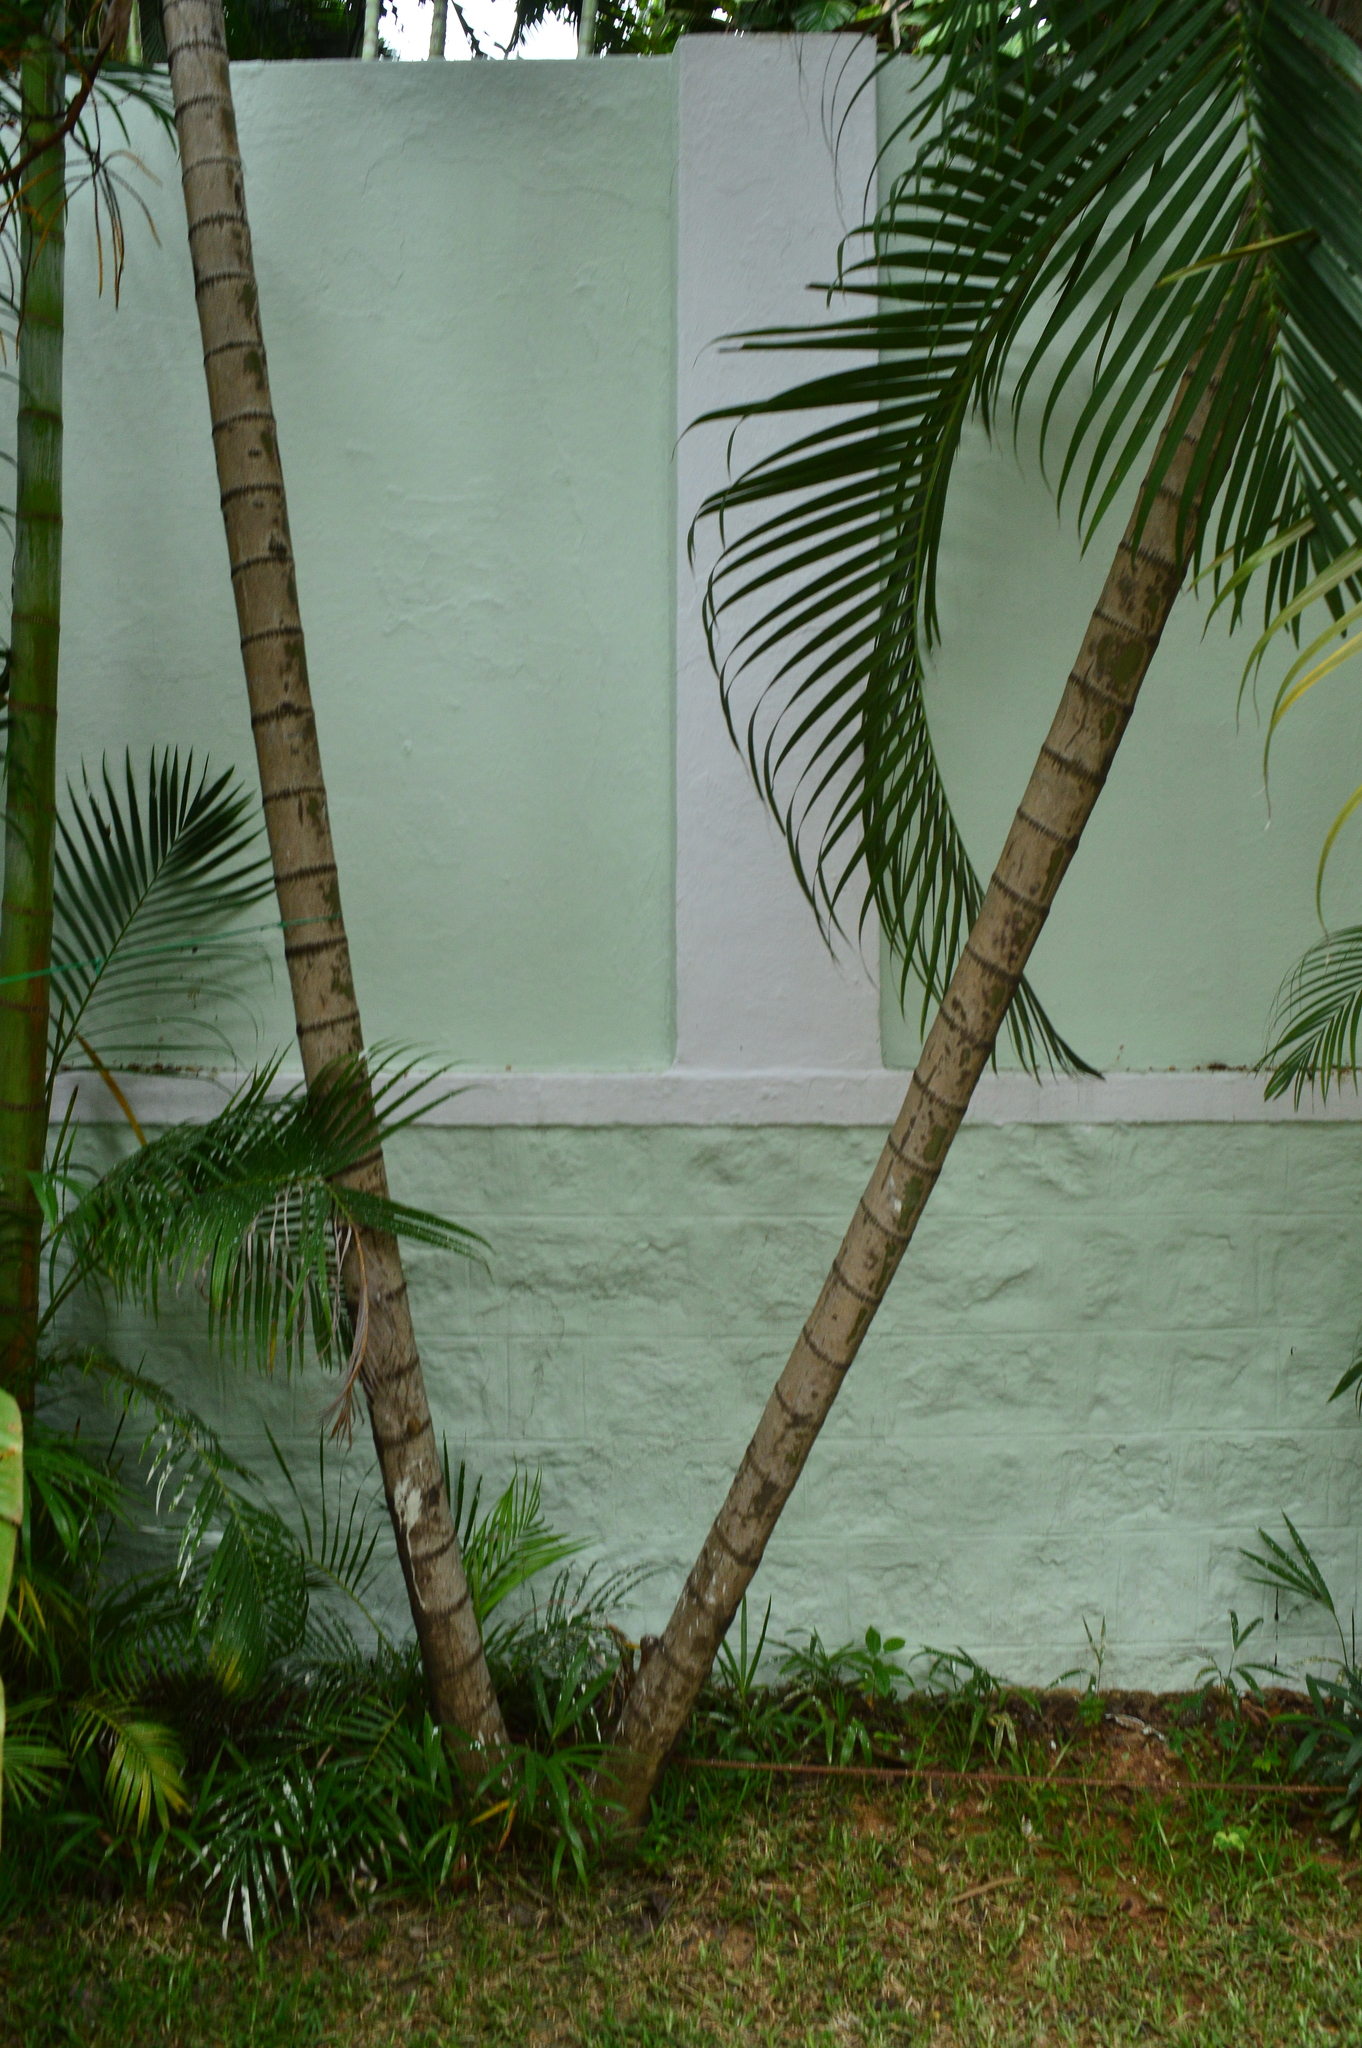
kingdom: Plantae
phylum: Tracheophyta
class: Liliopsida
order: Arecales
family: Arecaceae
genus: Dypsis
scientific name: Dypsis lutescens
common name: Yellow butterfly palm
